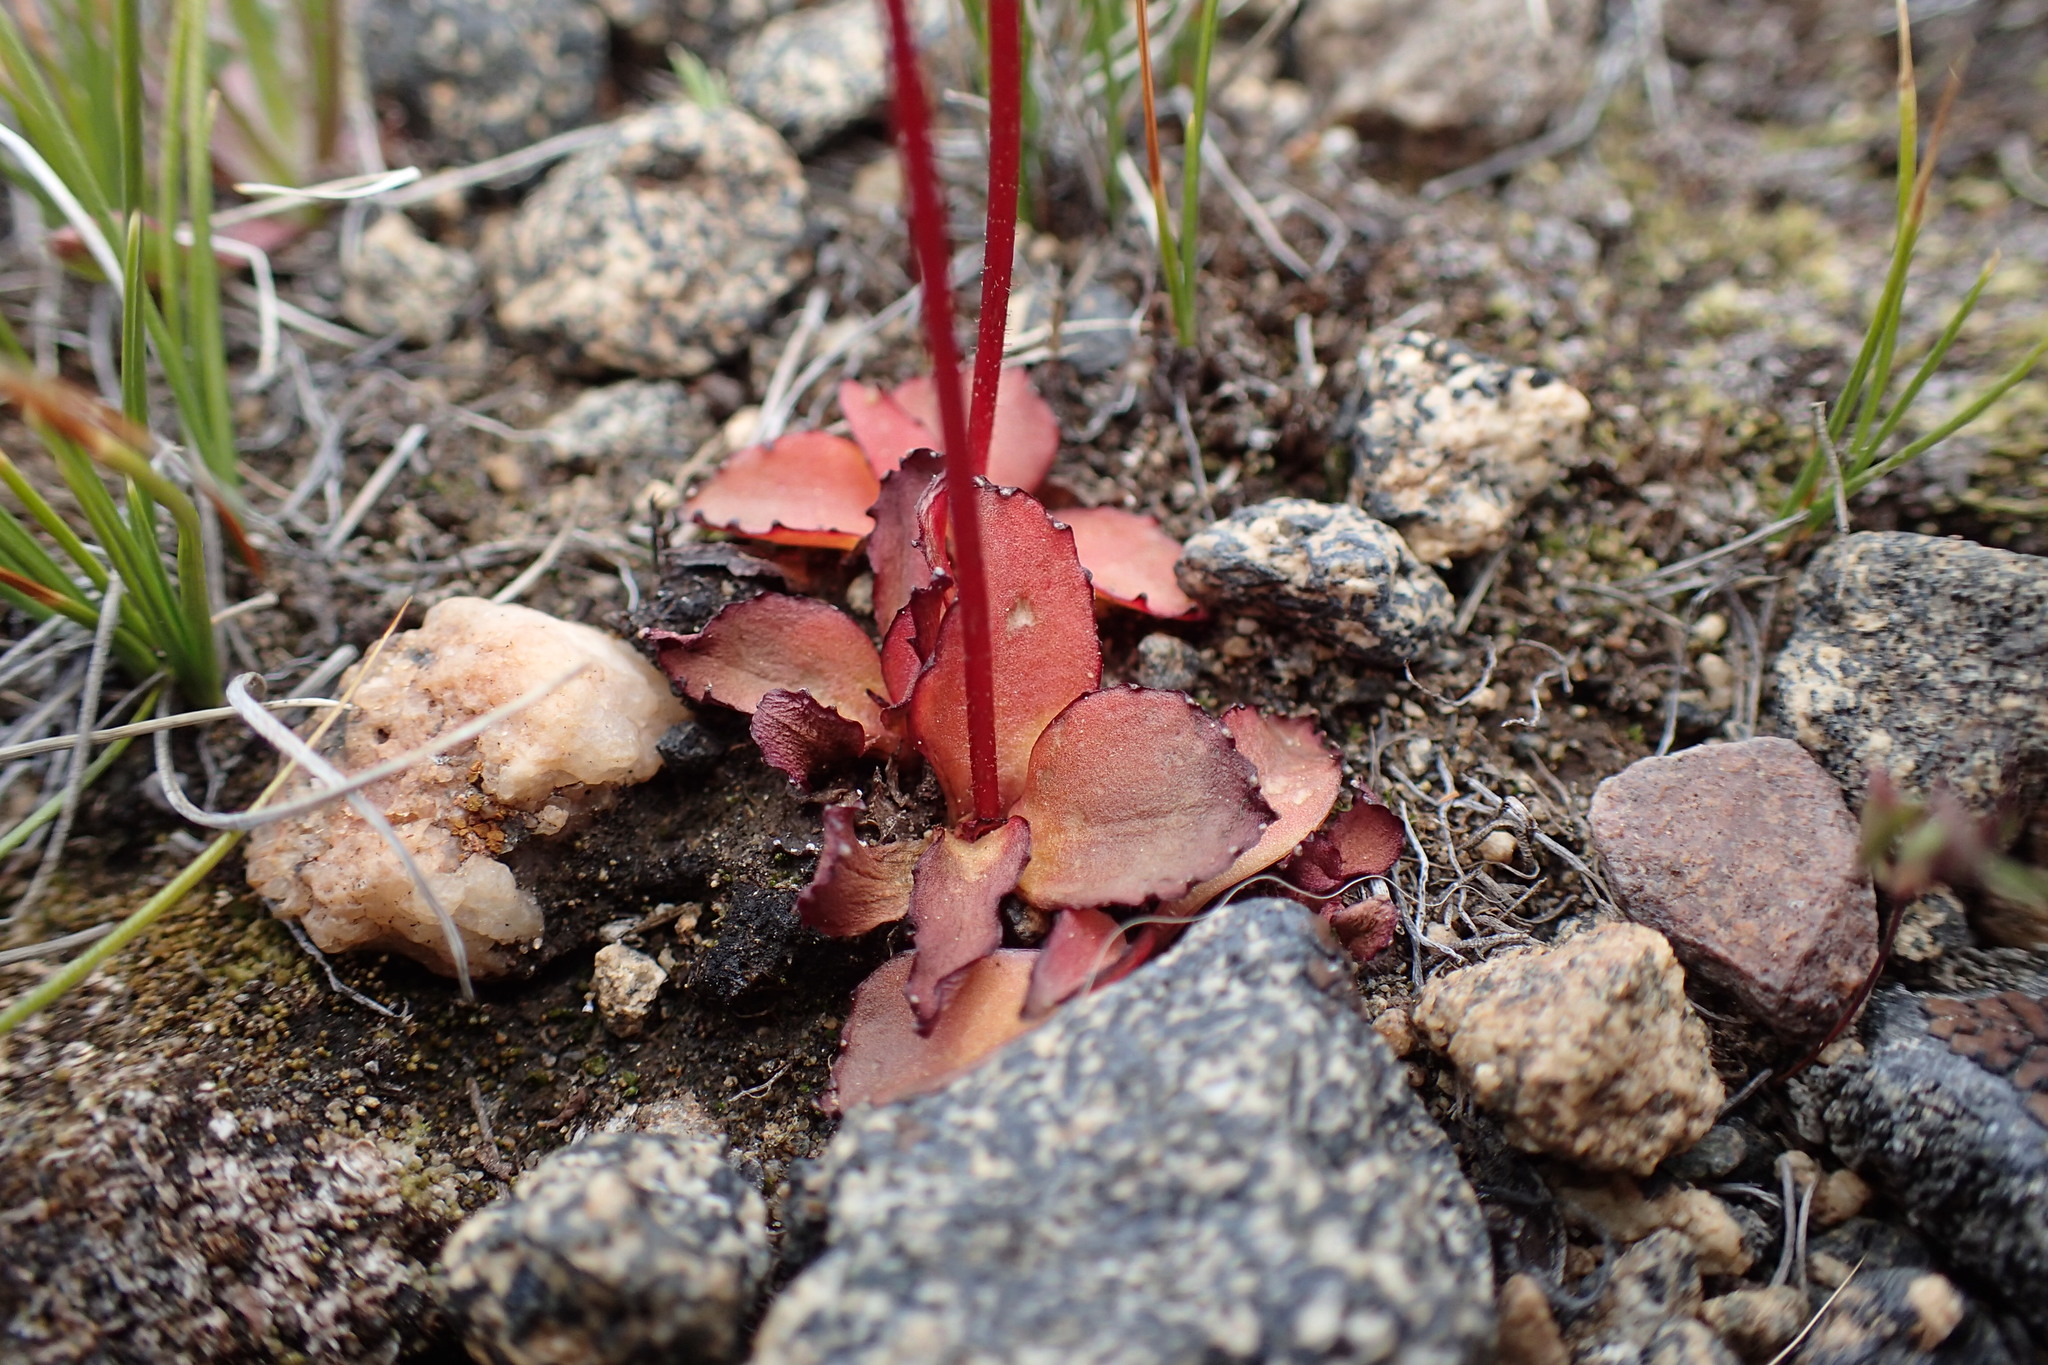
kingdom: Plantae
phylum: Tracheophyta
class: Magnoliopsida
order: Saxifragales
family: Saxifragaceae
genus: Micranthes
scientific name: Micranthes aprica
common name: Sierra saxifrage
